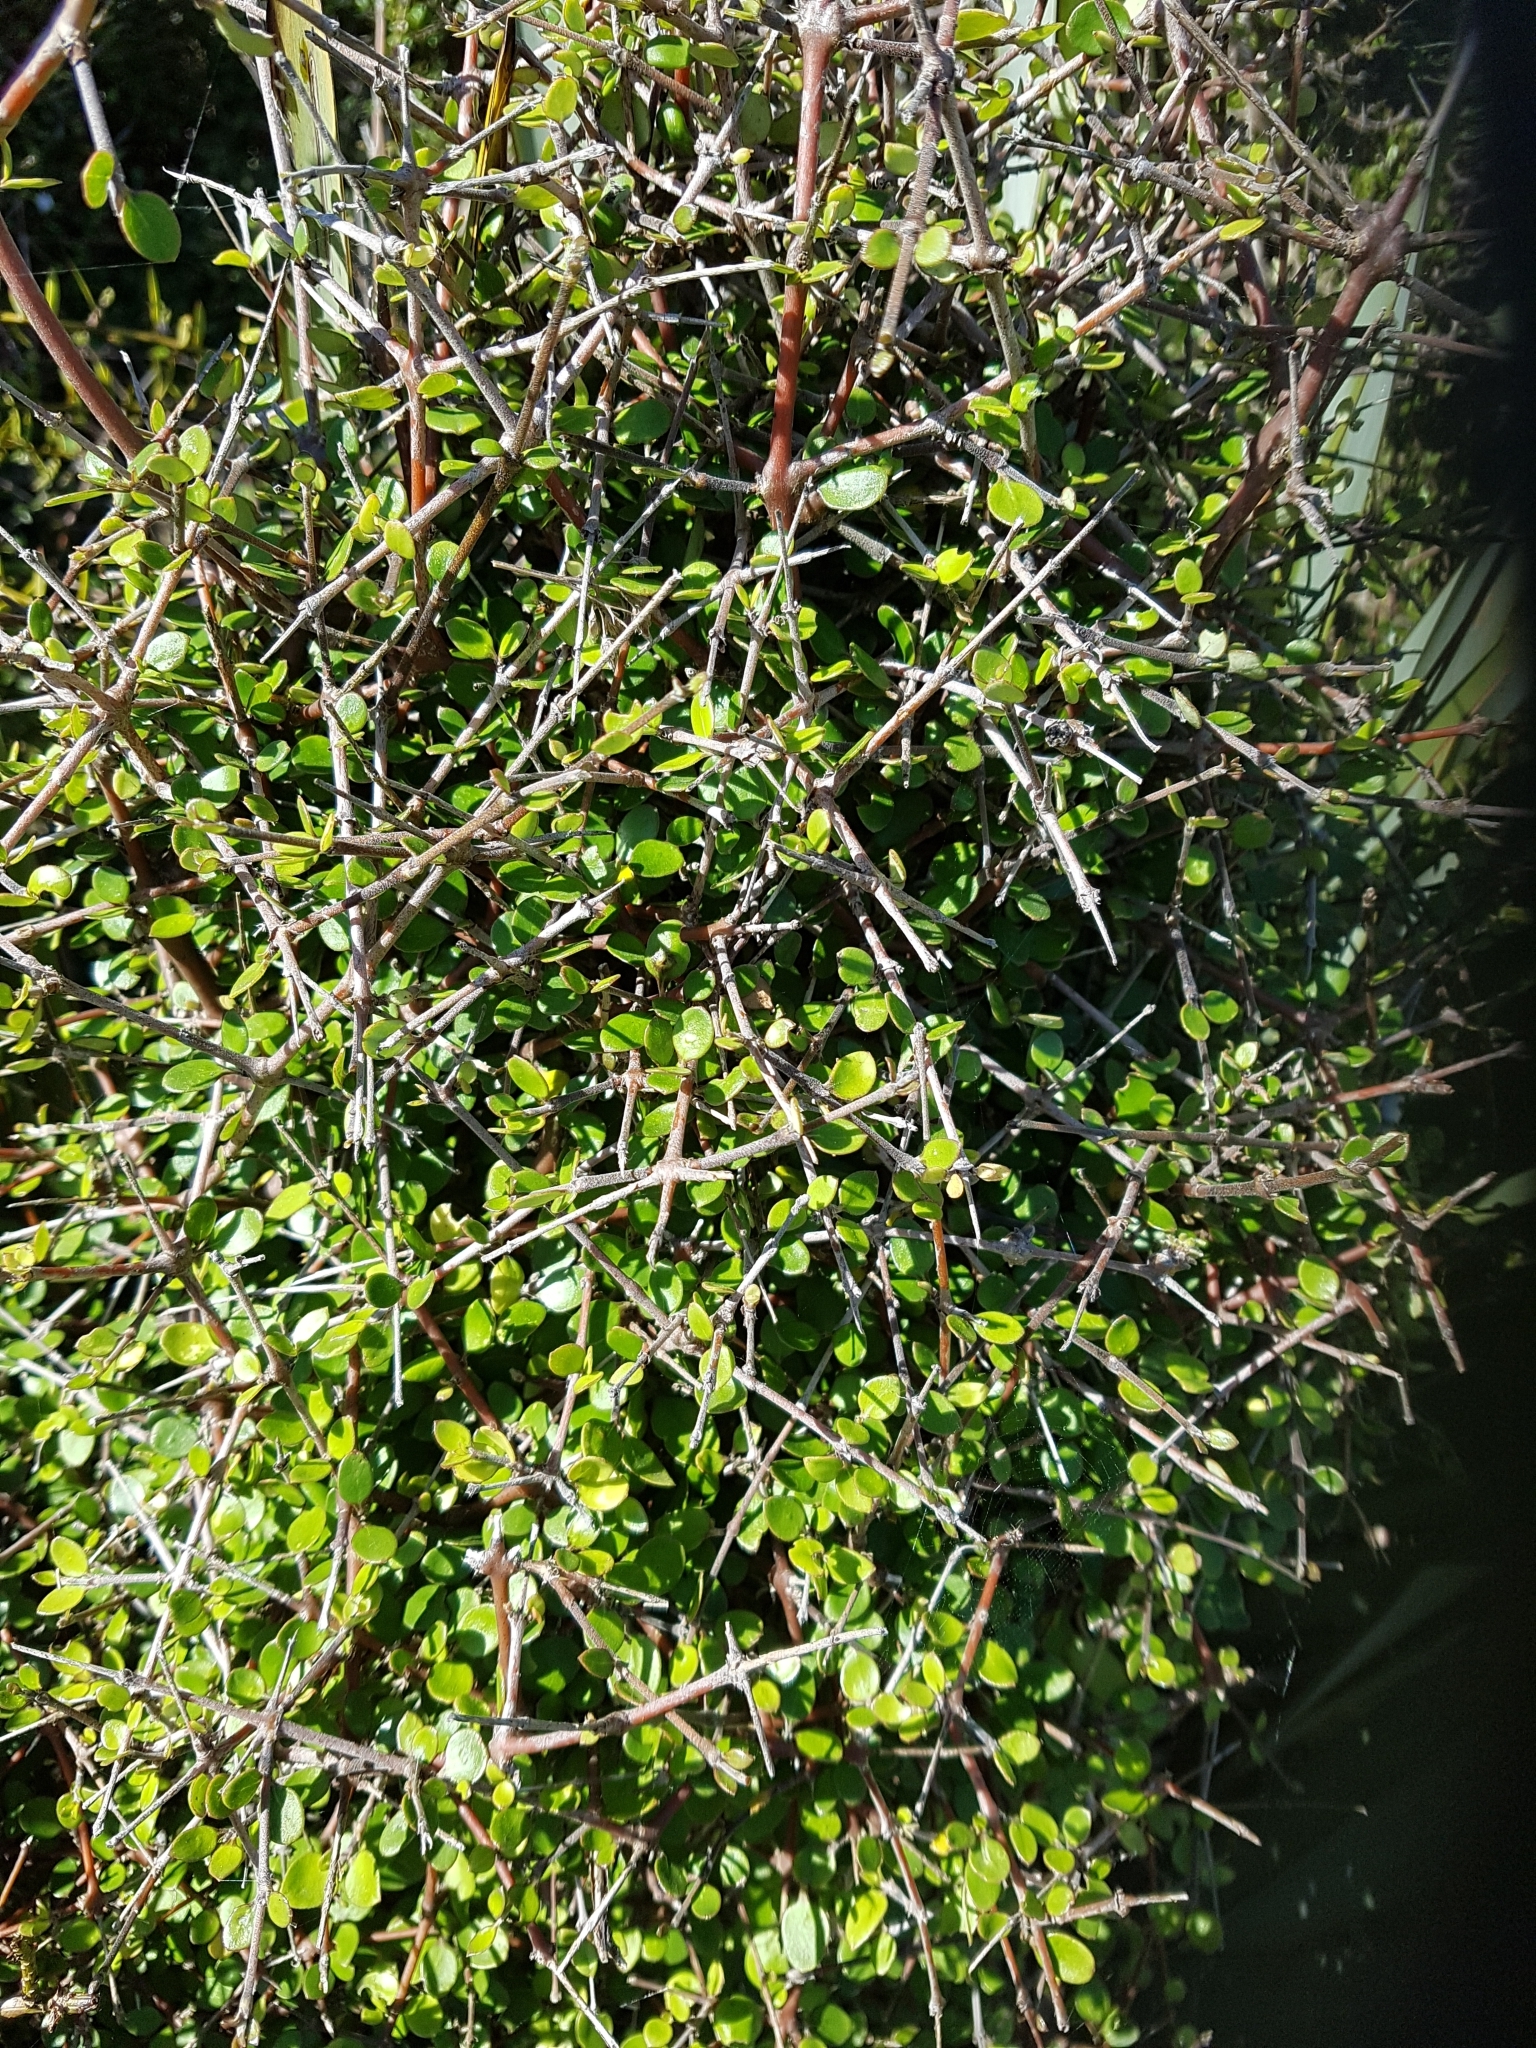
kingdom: Plantae
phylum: Tracheophyta
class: Magnoliopsida
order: Gentianales
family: Rubiaceae
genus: Coprosma
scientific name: Coprosma crassifolia
